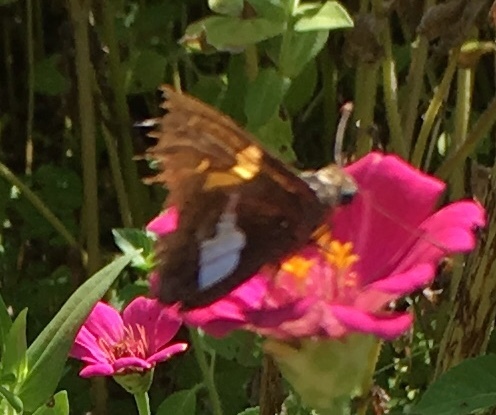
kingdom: Animalia
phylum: Arthropoda
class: Insecta
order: Lepidoptera
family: Hesperiidae
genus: Epargyreus
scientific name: Epargyreus clarus
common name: Silver-spotted skipper
